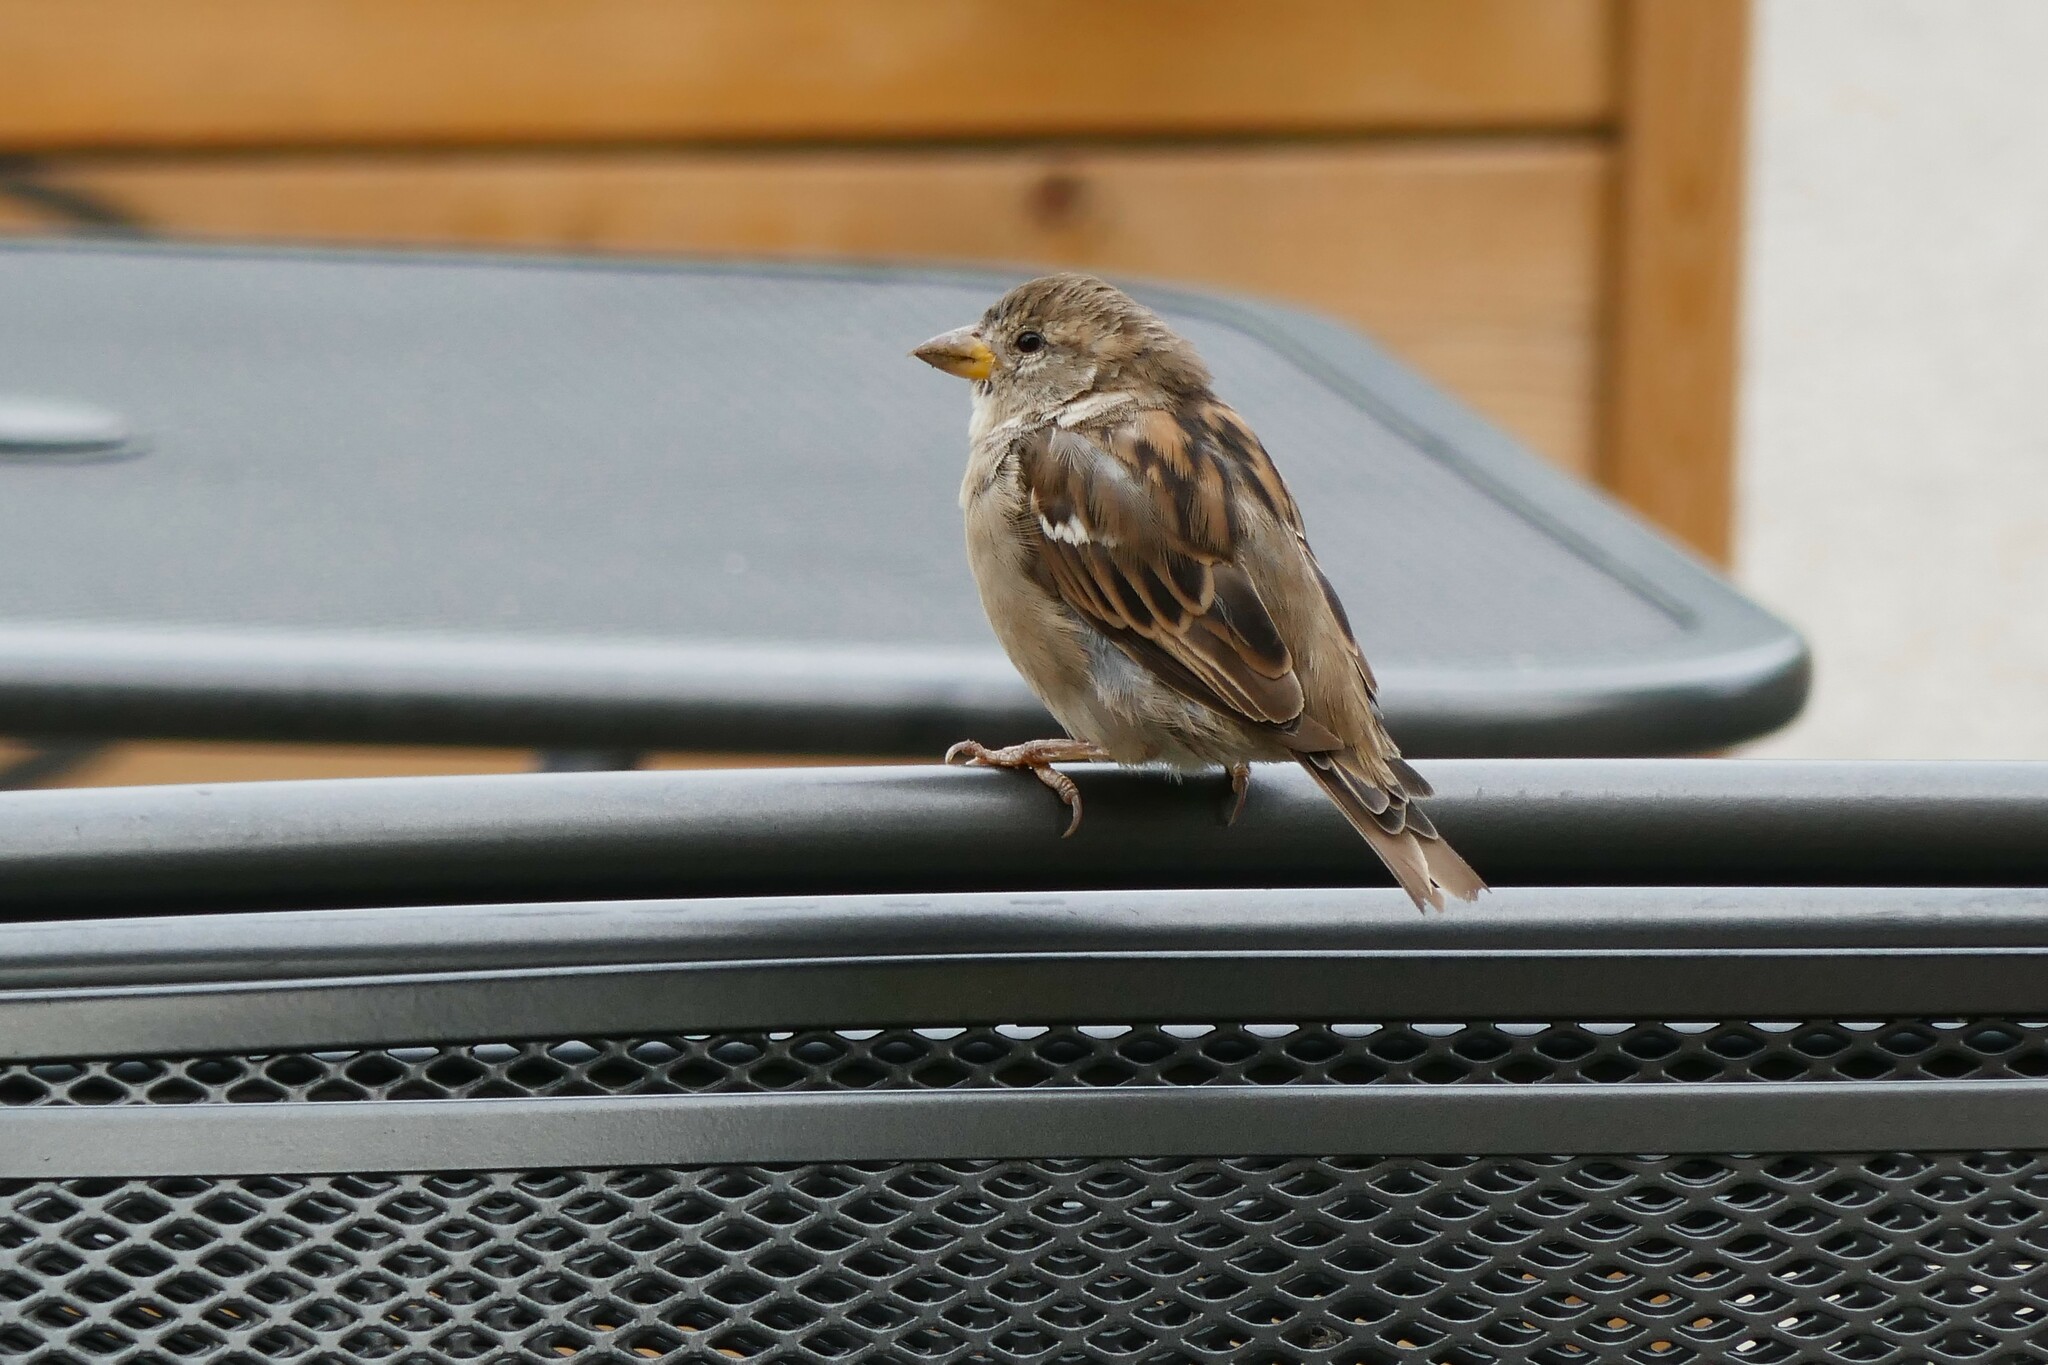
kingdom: Animalia
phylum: Chordata
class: Aves
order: Passeriformes
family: Passeridae
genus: Passer
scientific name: Passer domesticus
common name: House sparrow
